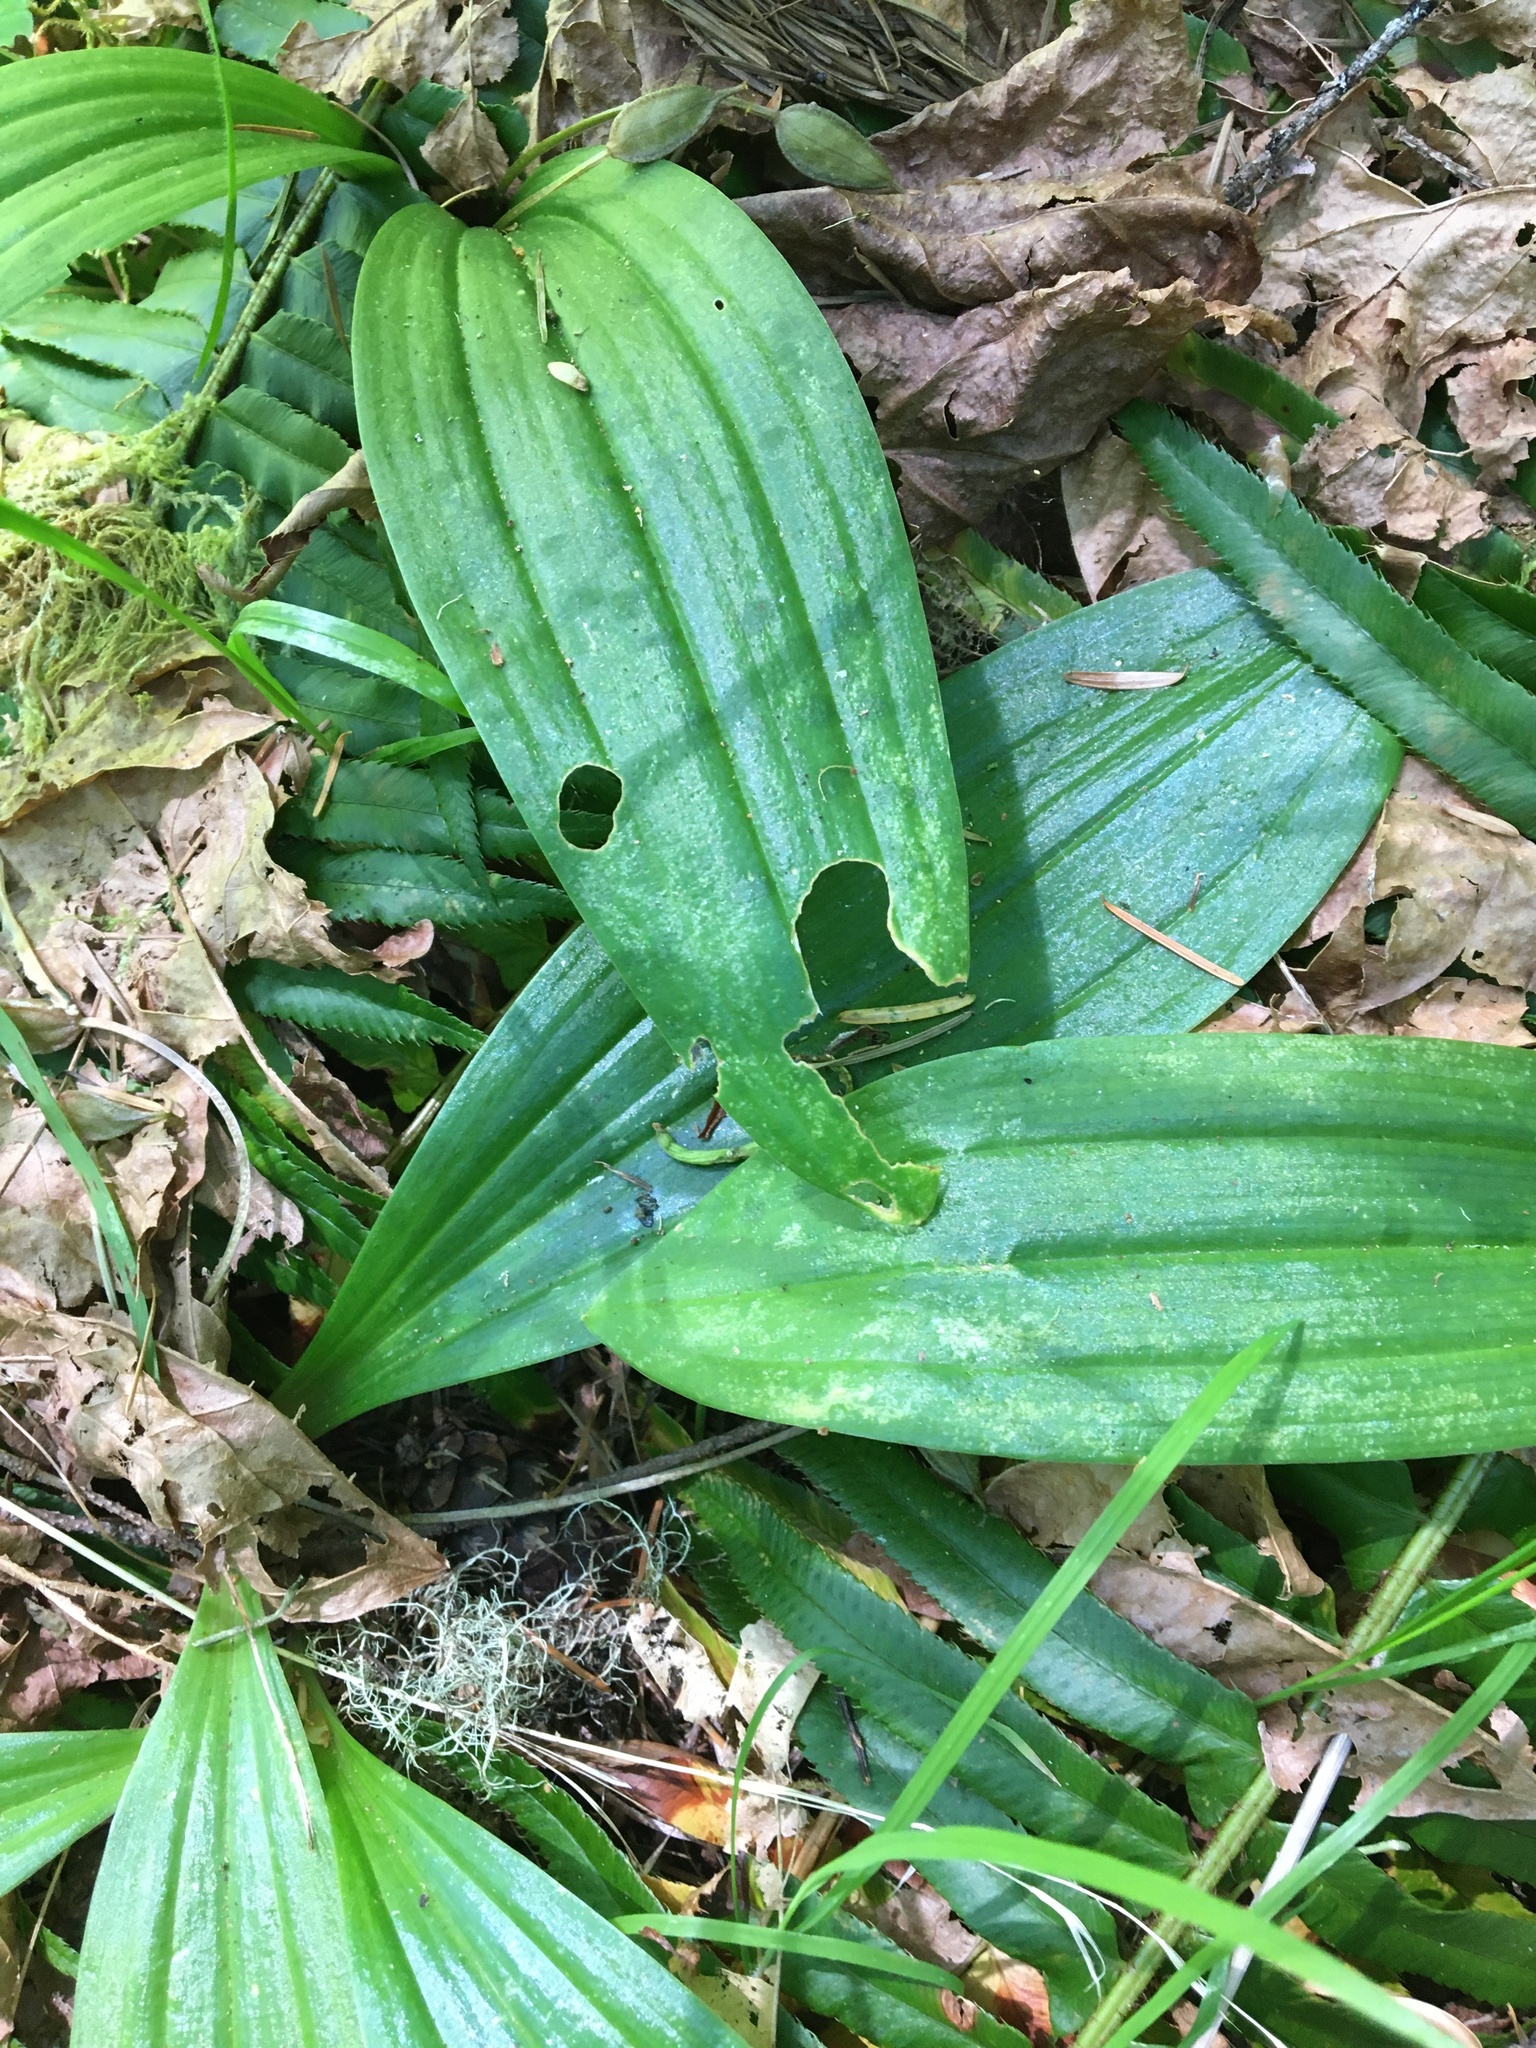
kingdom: Plantae
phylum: Tracheophyta
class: Liliopsida
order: Liliales
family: Liliaceae
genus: Scoliopus
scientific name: Scoliopus hallii
